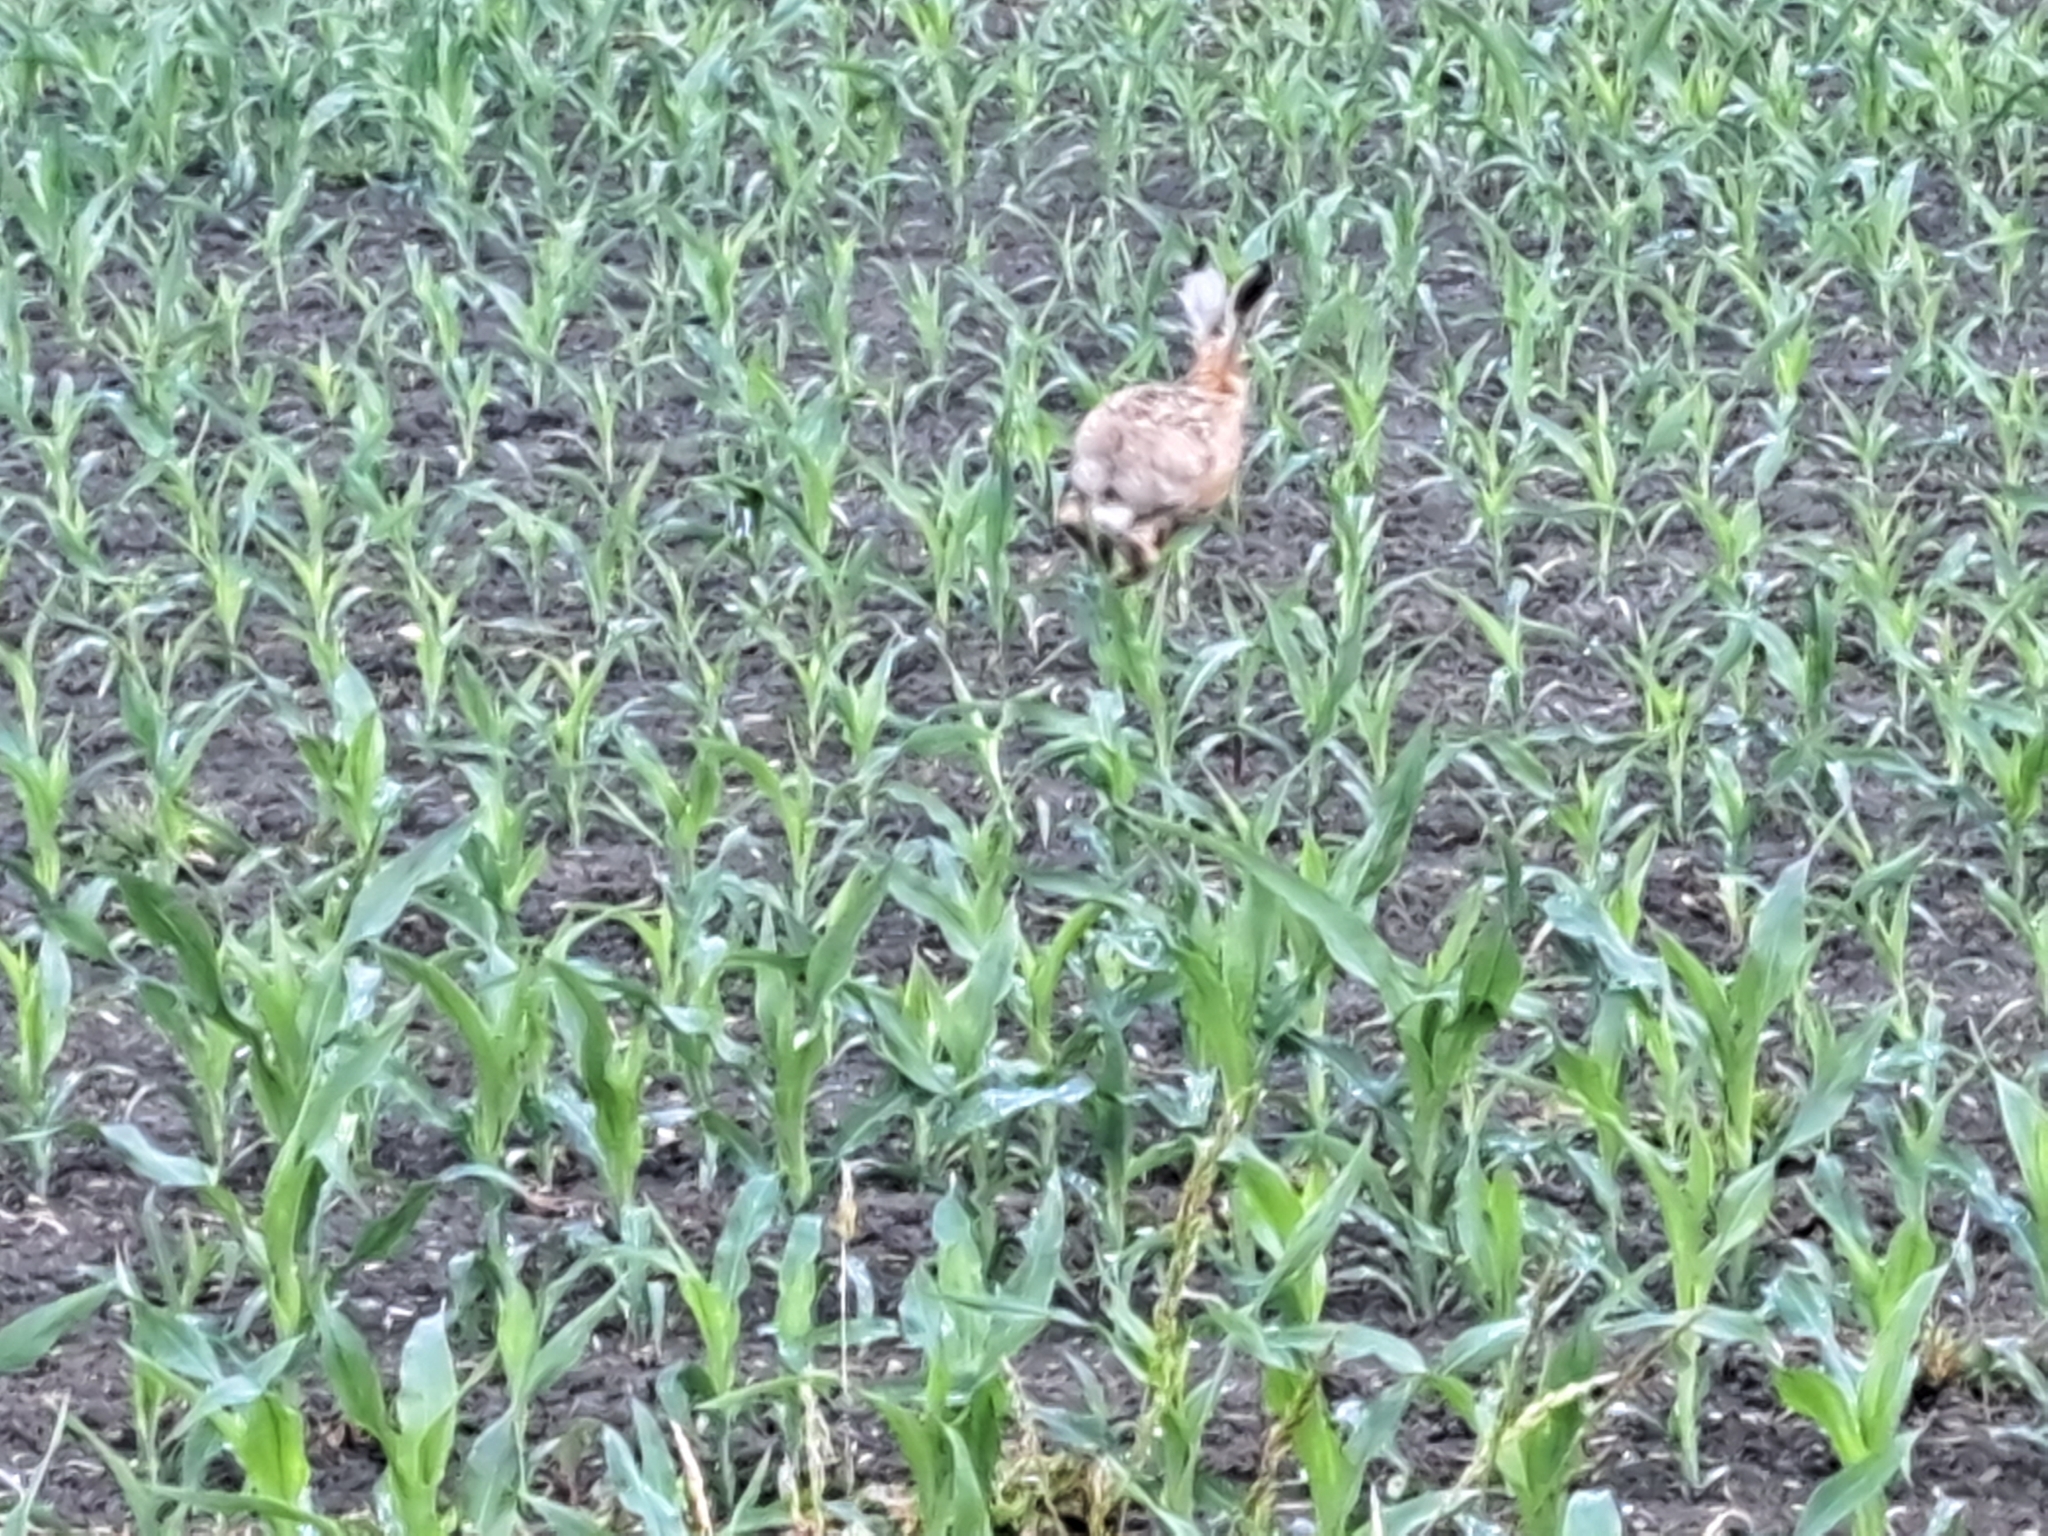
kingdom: Animalia
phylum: Chordata
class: Mammalia
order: Lagomorpha
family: Leporidae
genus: Lepus
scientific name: Lepus europaeus
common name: European hare
